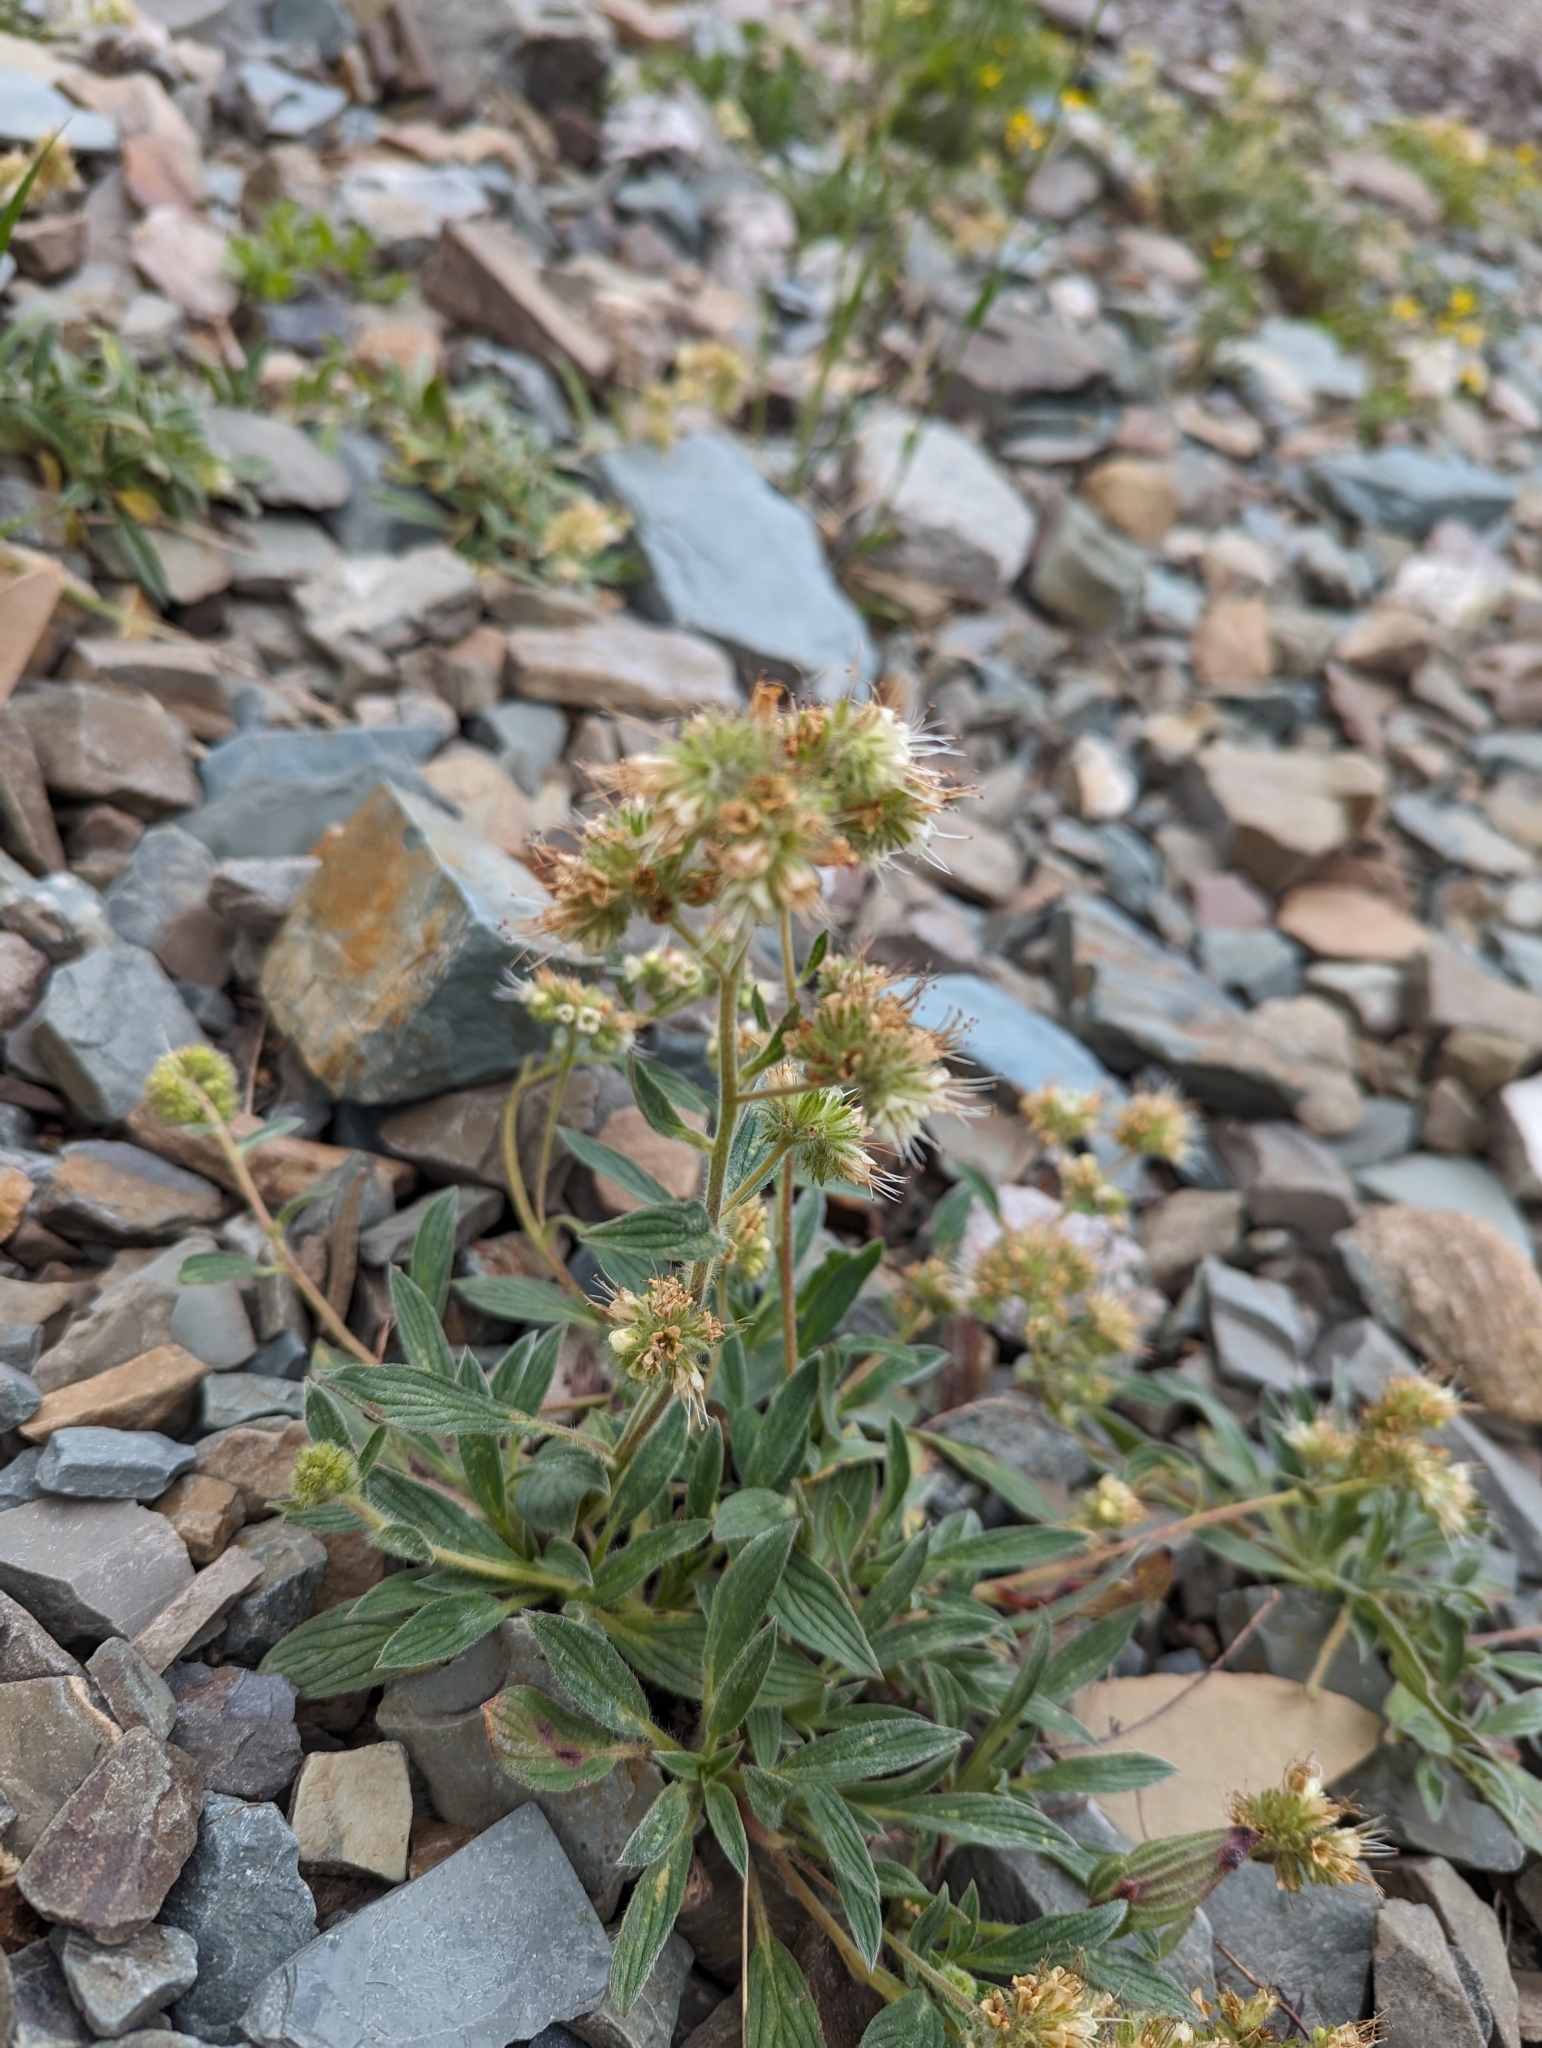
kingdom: Plantae
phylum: Tracheophyta
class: Magnoliopsida
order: Boraginales
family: Hydrophyllaceae
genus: Phacelia
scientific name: Phacelia hastata
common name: Silver-leaved phacelia
